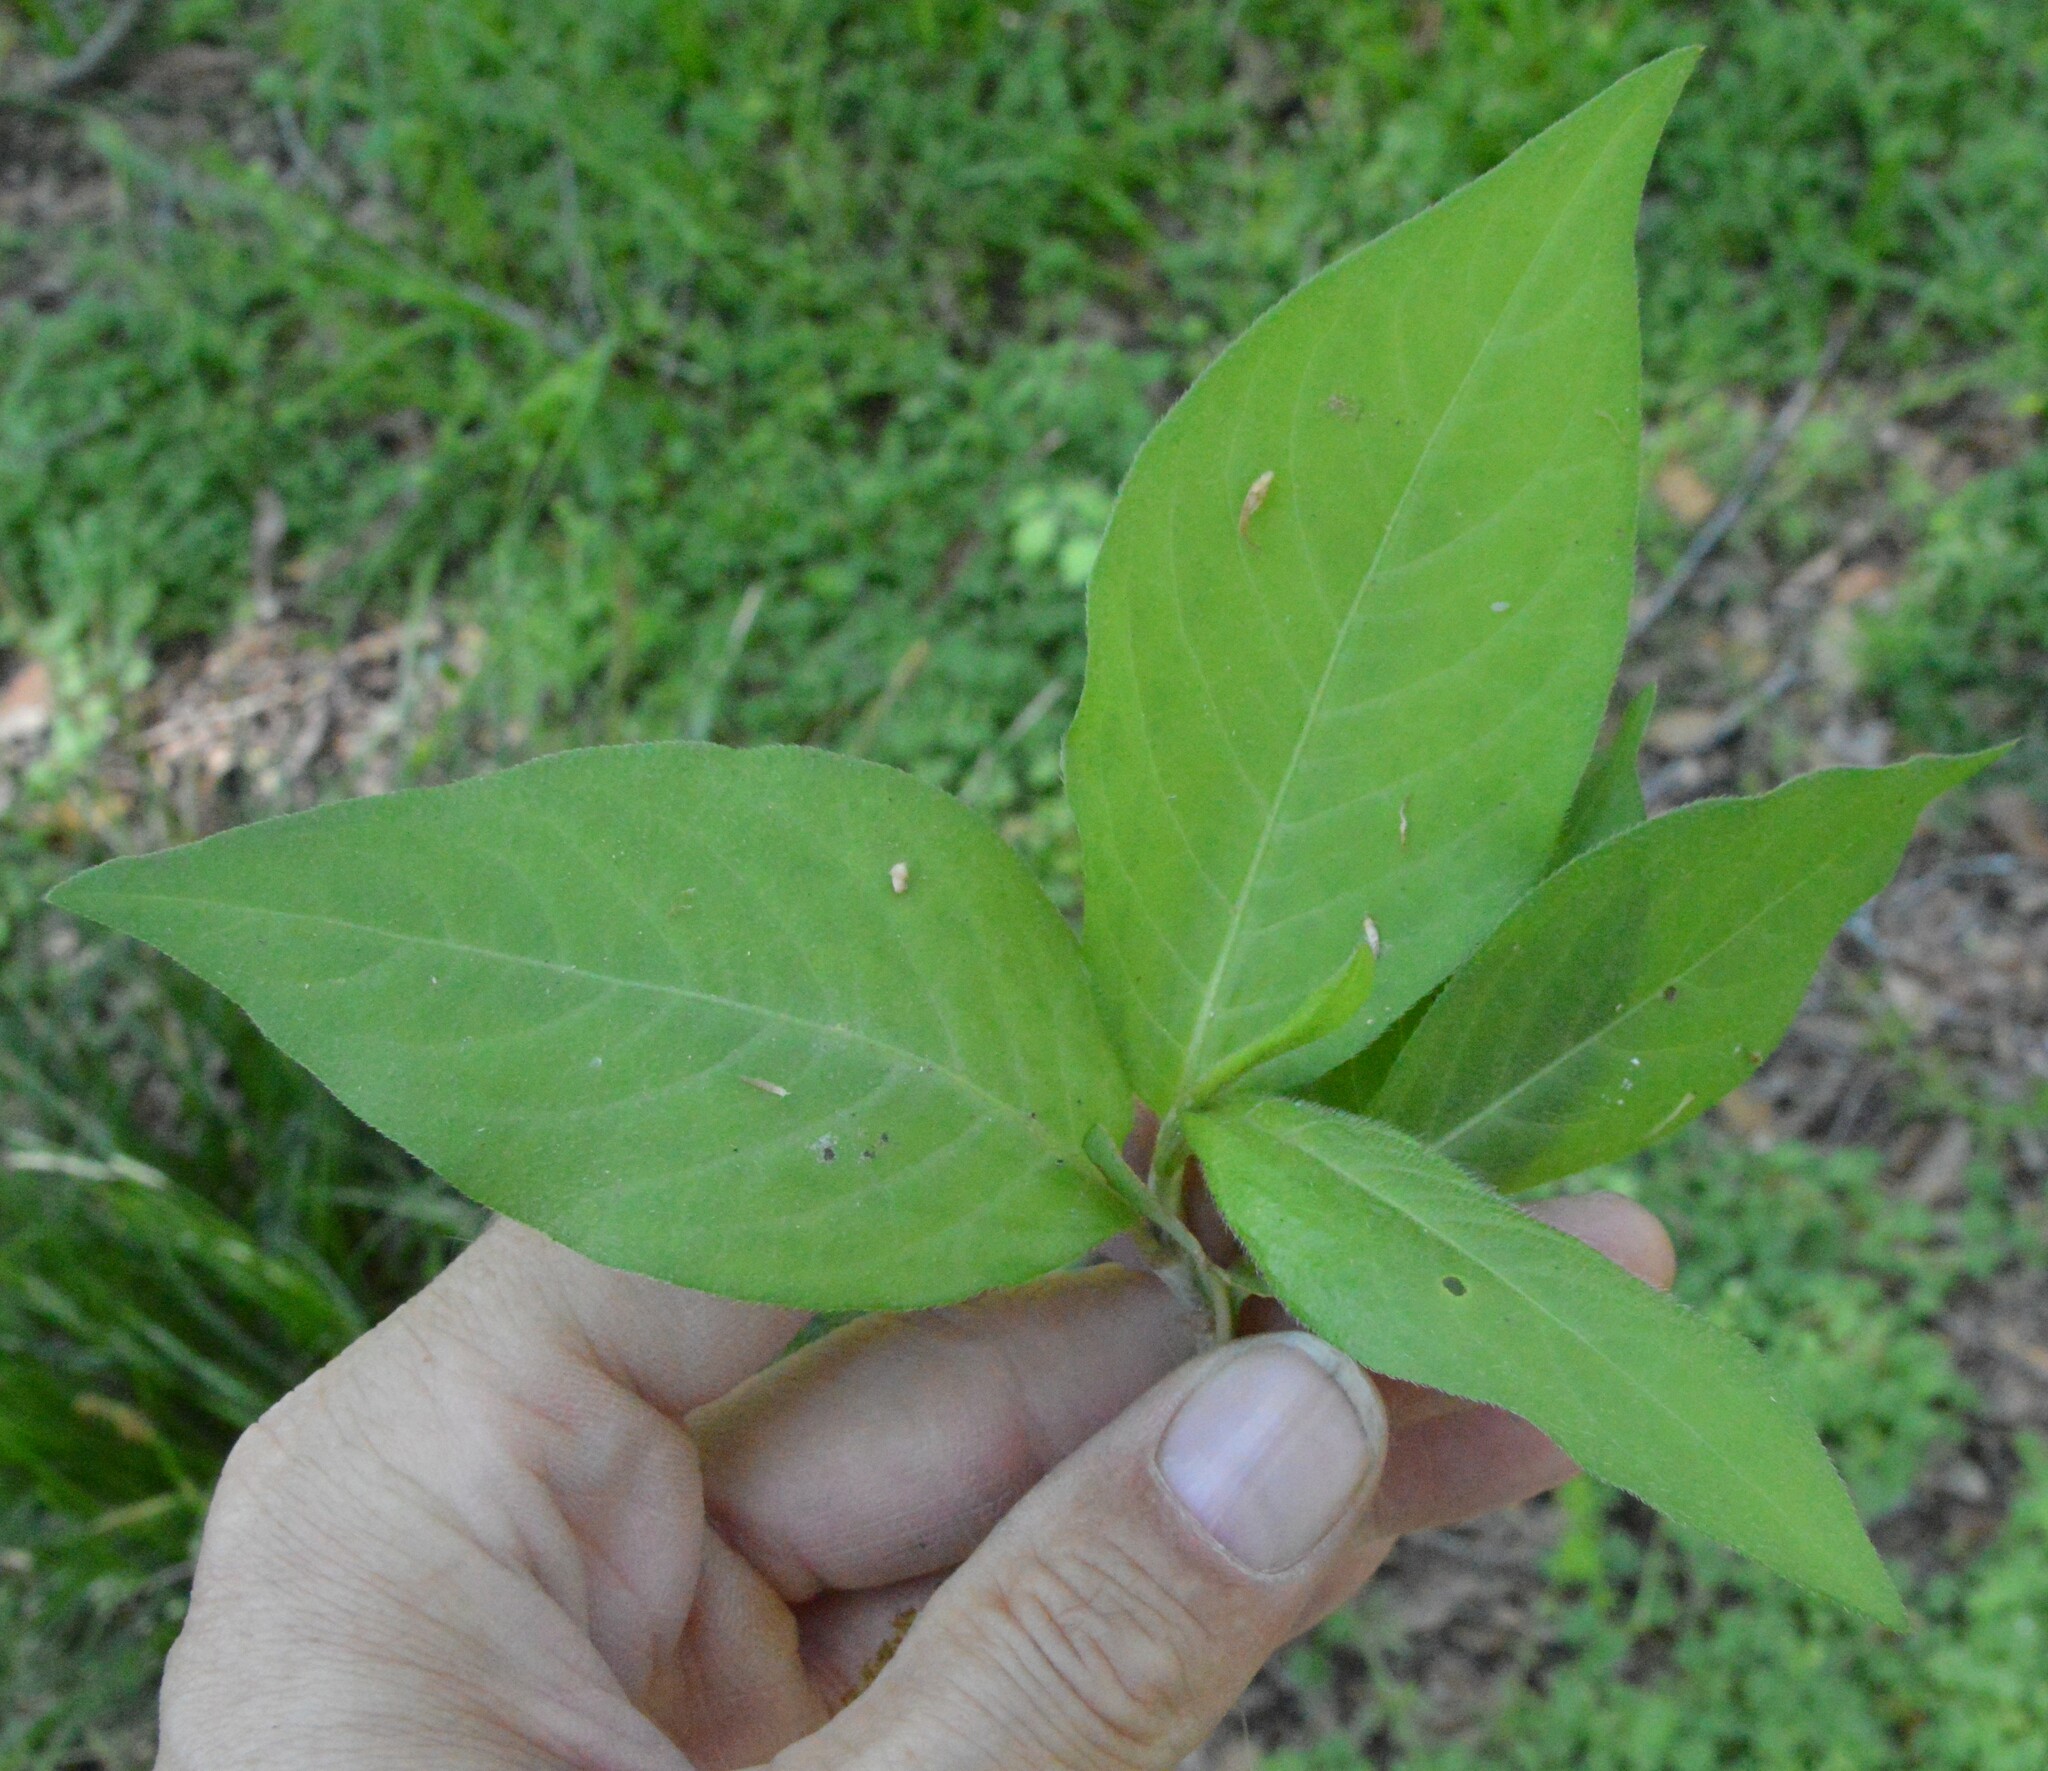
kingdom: Plantae
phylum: Tracheophyta
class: Magnoliopsida
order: Caryophyllales
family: Polygonaceae
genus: Persicaria
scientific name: Persicaria virginiana
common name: Jumpseed
